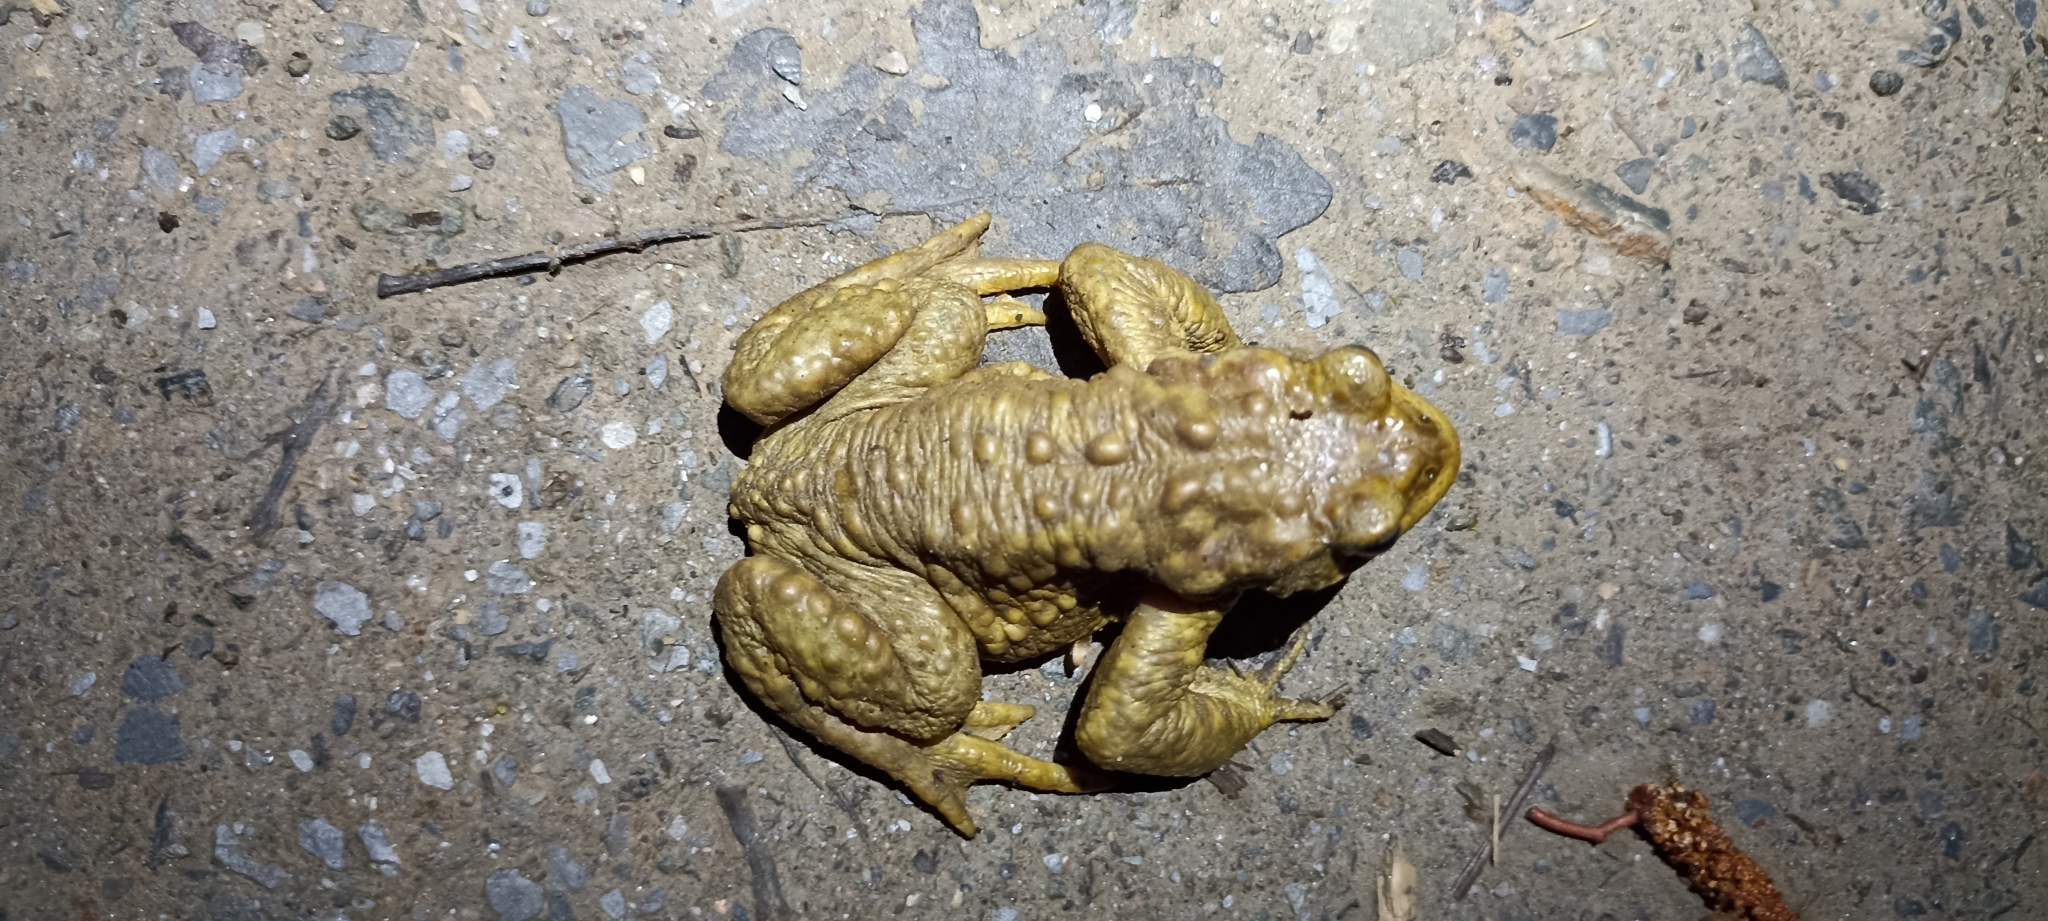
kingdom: Animalia
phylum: Chordata
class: Amphibia
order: Anura
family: Bufonidae
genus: Bufo
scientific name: Bufo spinosus
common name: Western common toad
